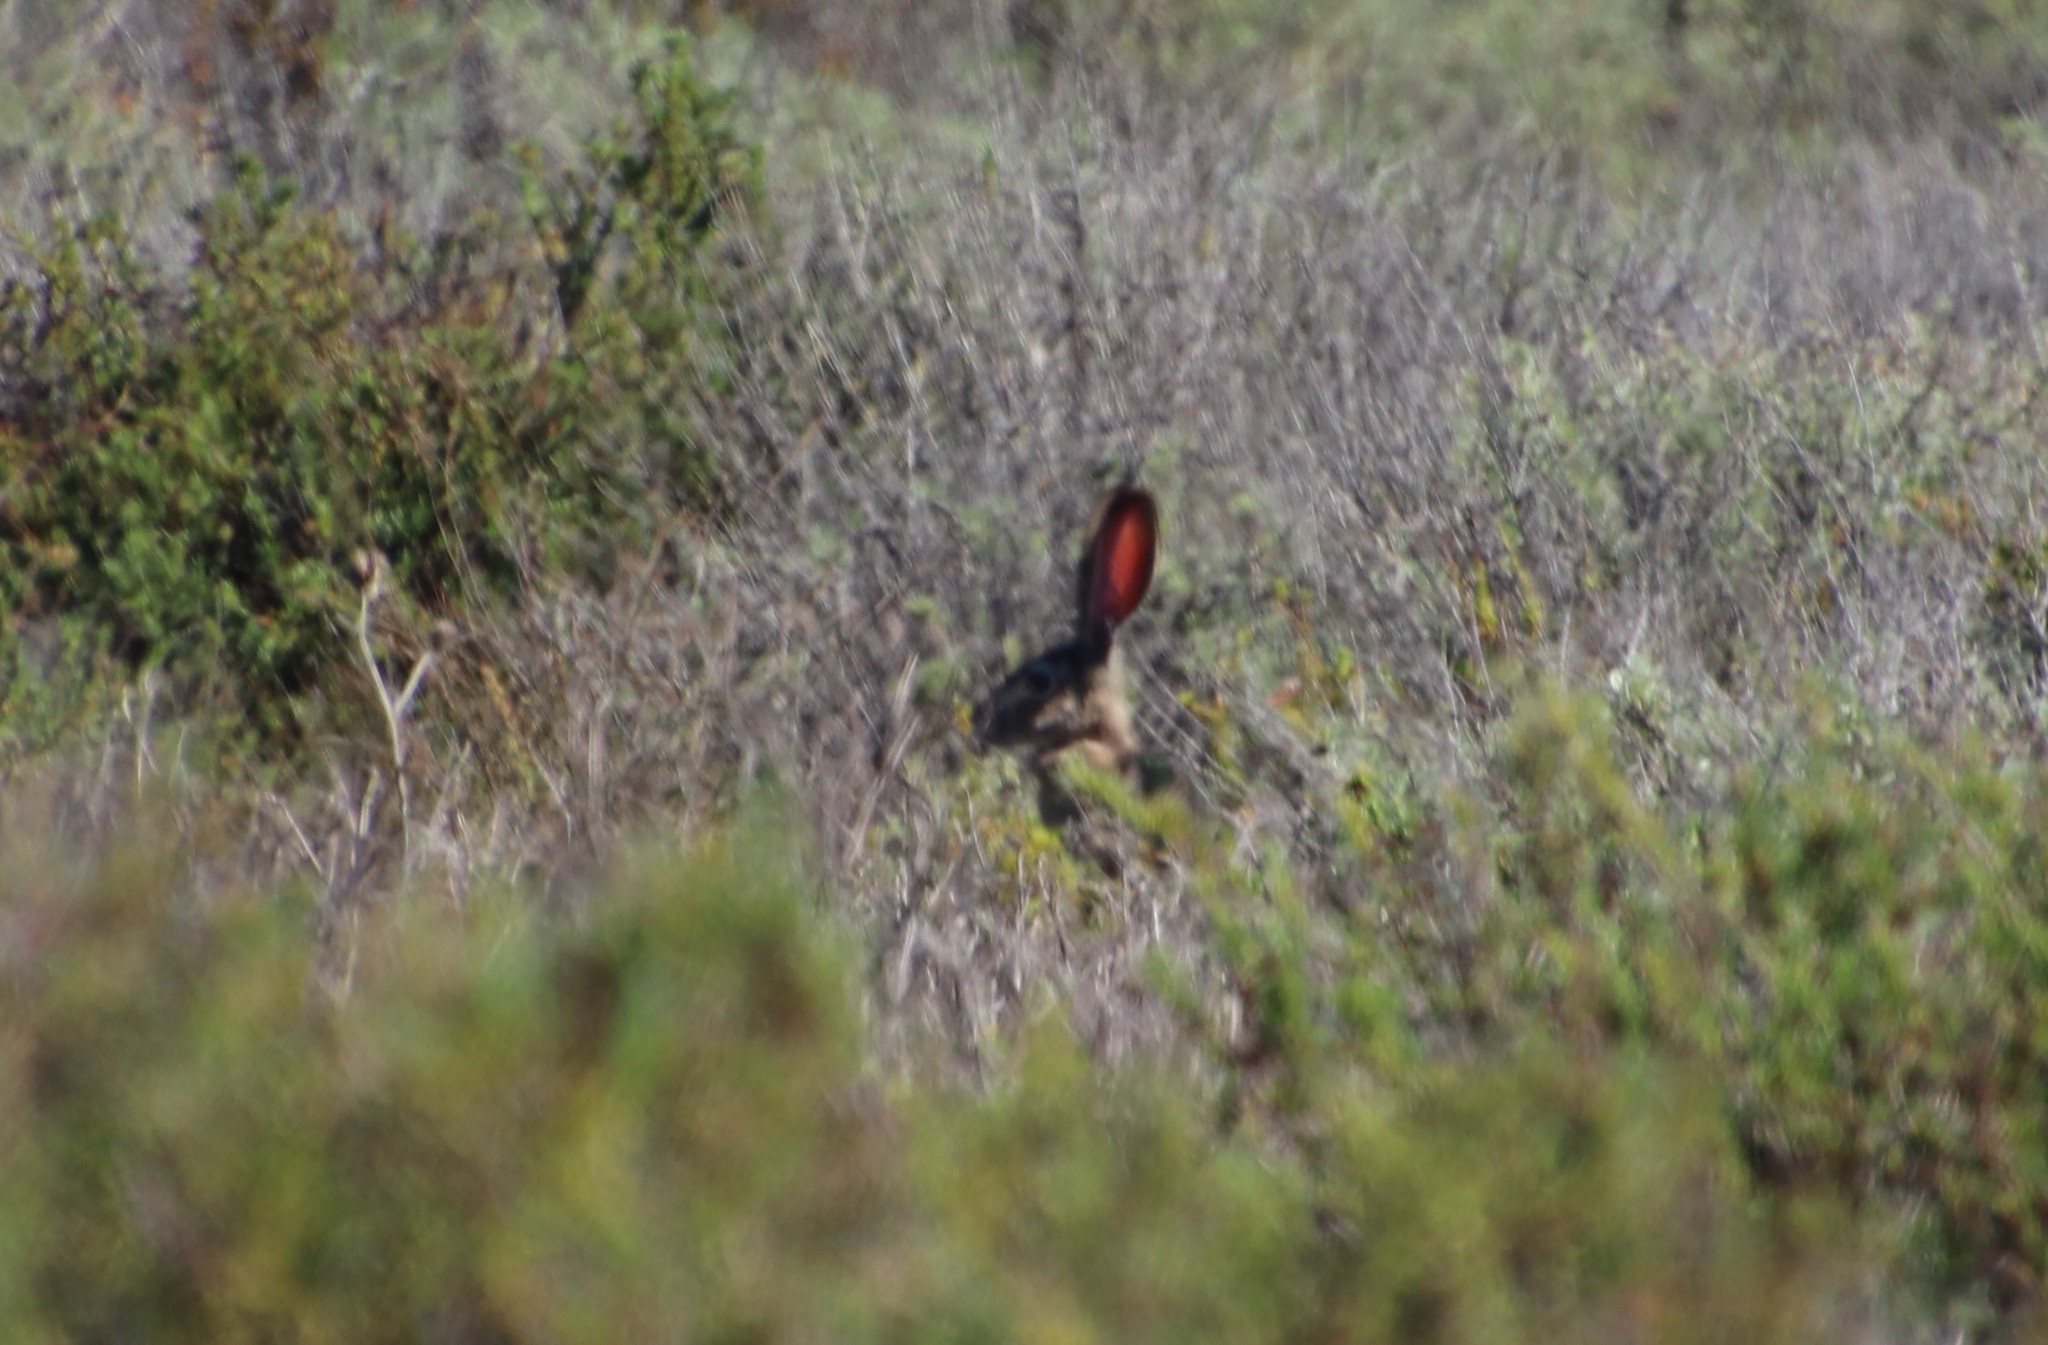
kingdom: Animalia
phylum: Chordata
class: Mammalia
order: Lagomorpha
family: Leporidae
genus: Lepus
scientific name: Lepus californicus
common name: Black-tailed jackrabbit
